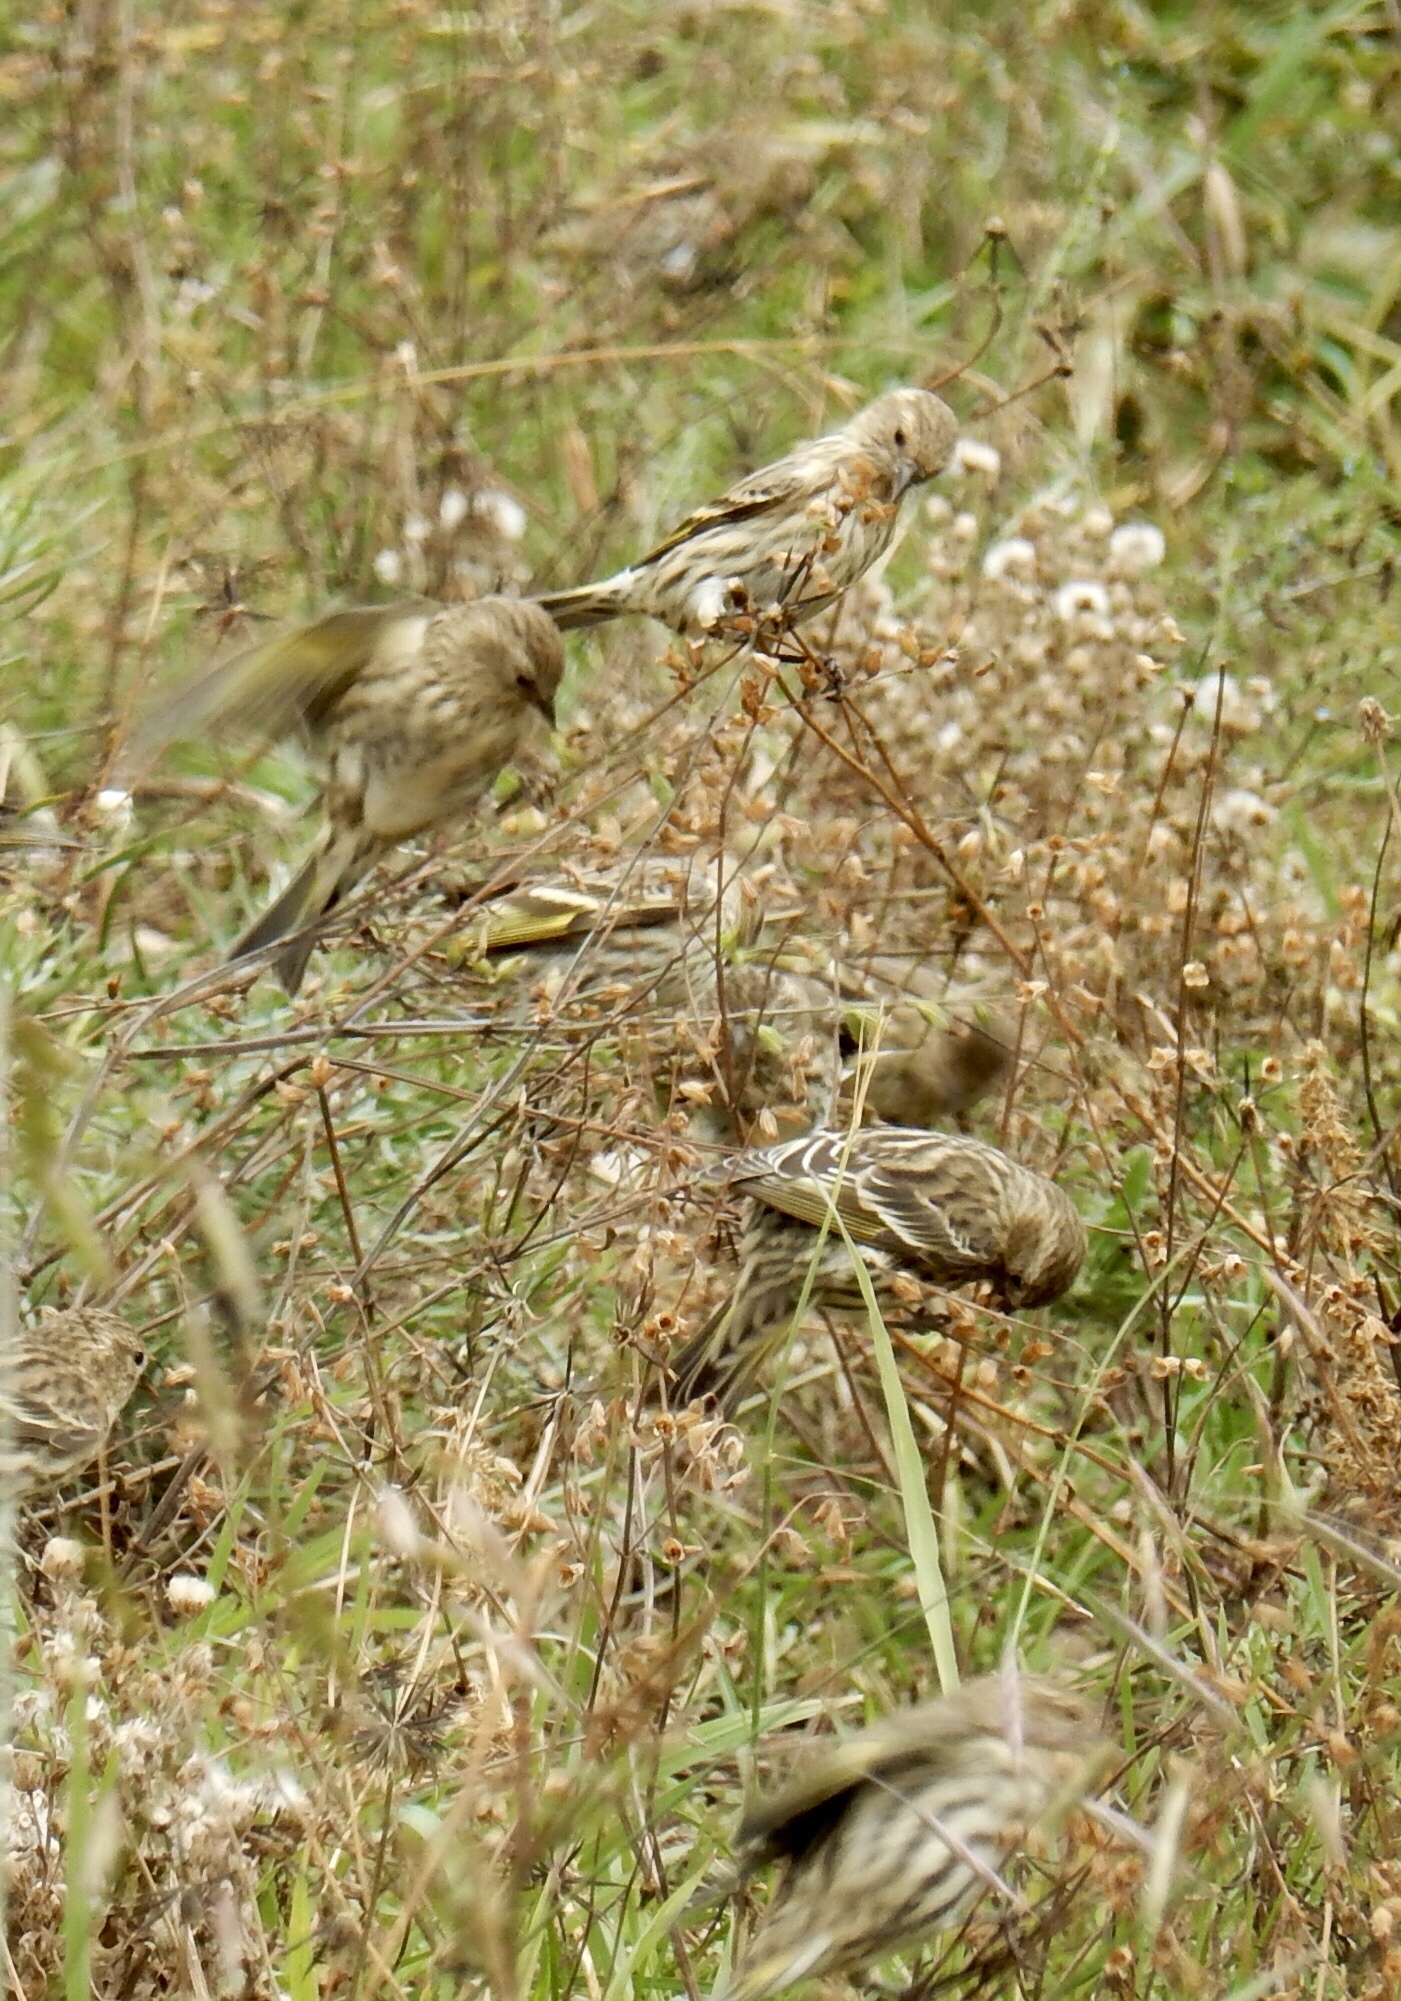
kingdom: Animalia
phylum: Chordata
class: Aves
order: Passeriformes
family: Fringillidae
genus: Spinus
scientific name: Spinus pinus
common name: Pine siskin
